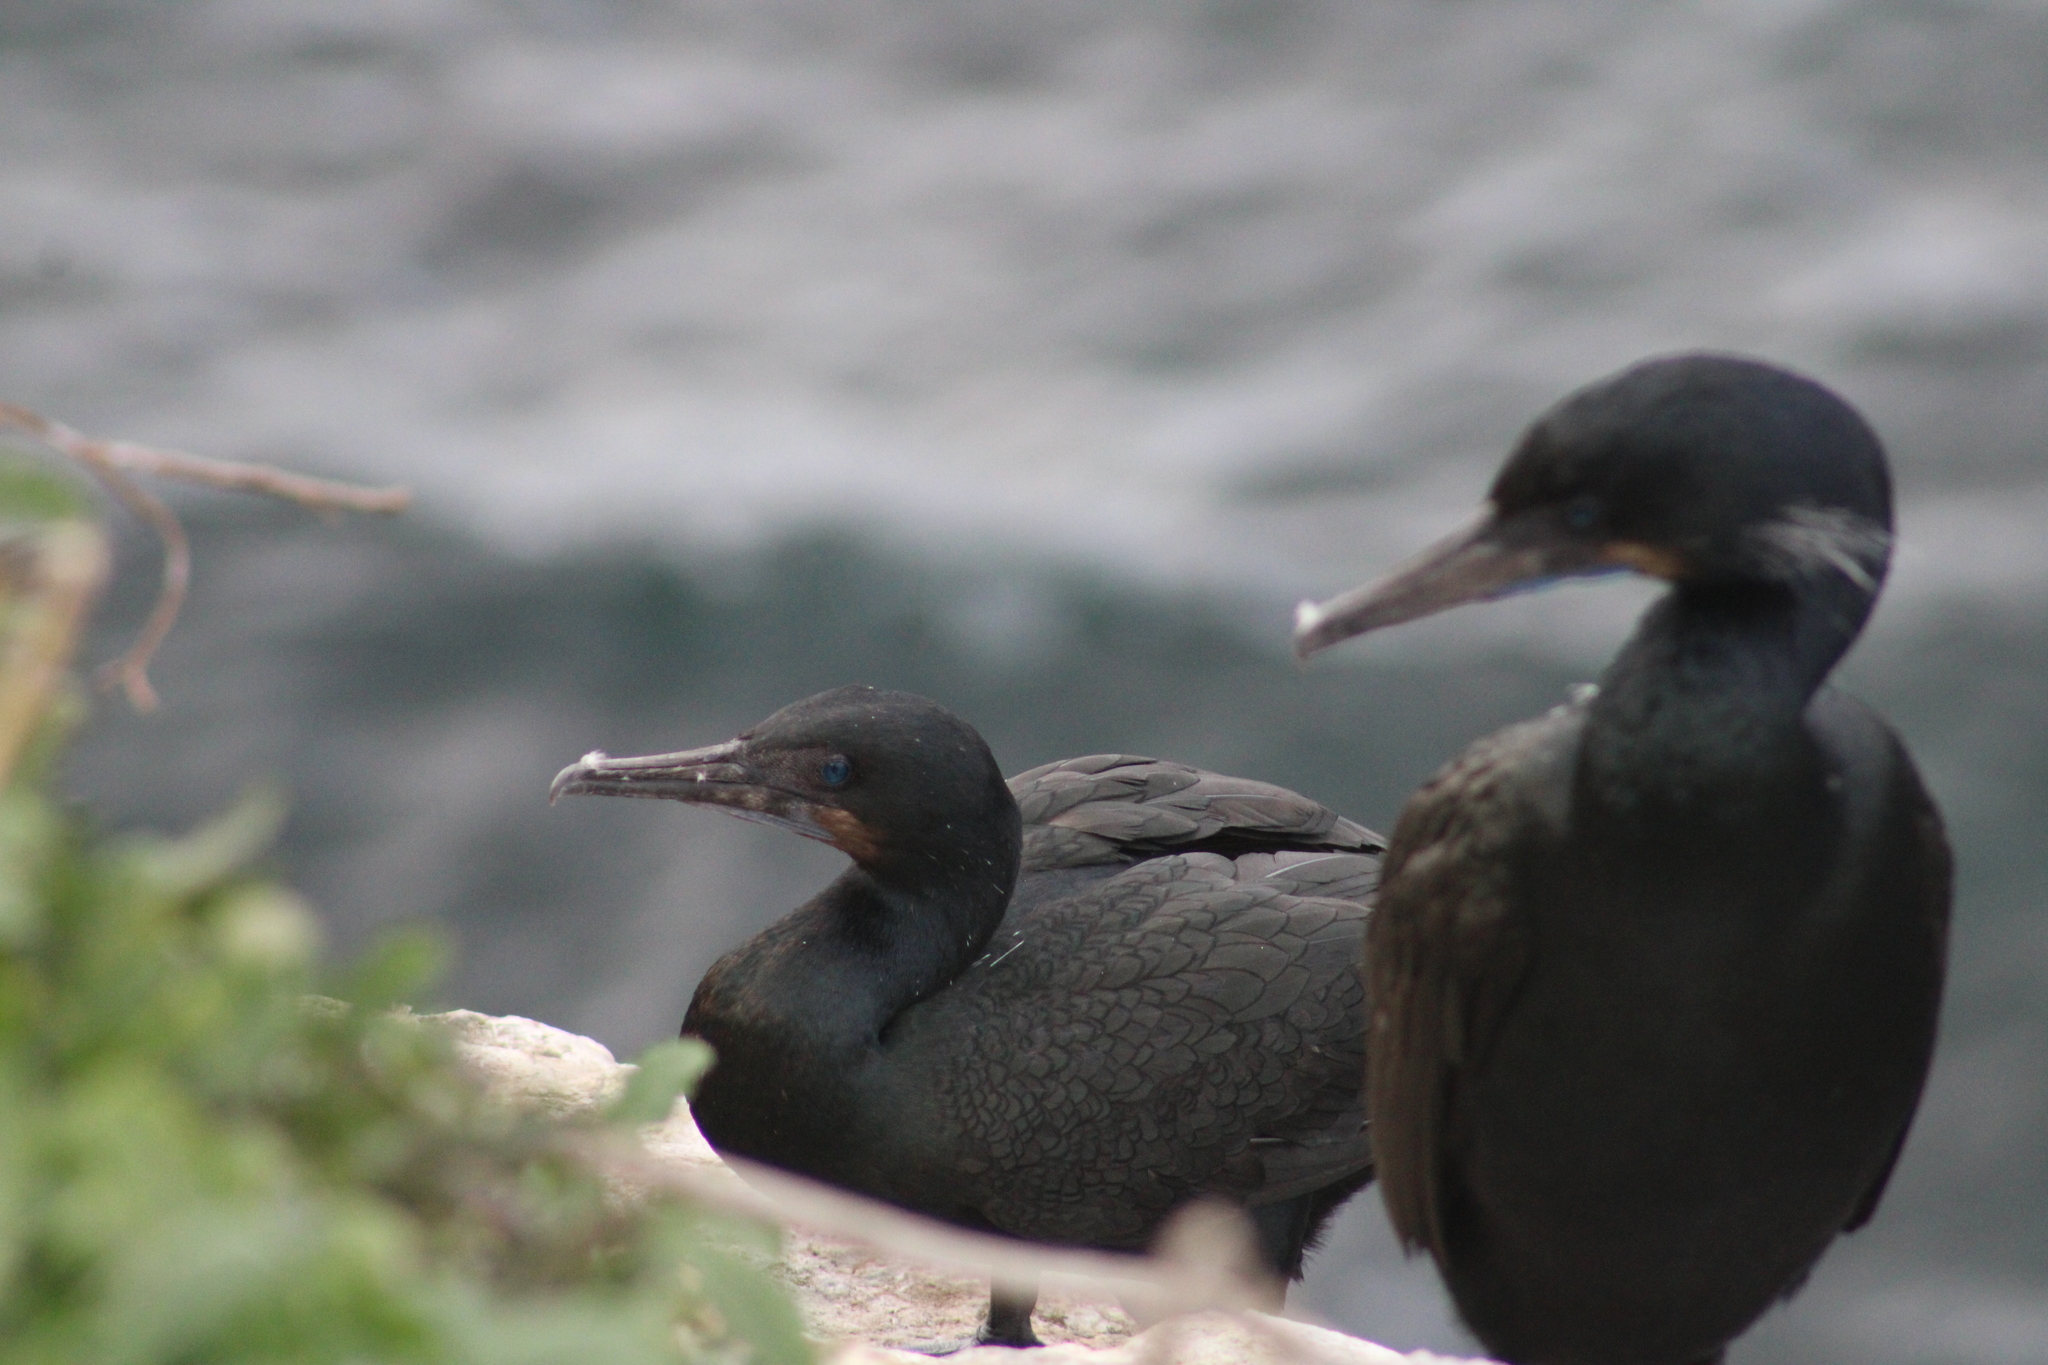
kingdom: Animalia
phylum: Chordata
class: Aves
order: Suliformes
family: Phalacrocoracidae
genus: Urile
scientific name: Urile penicillatus
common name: Brandt's cormorant
